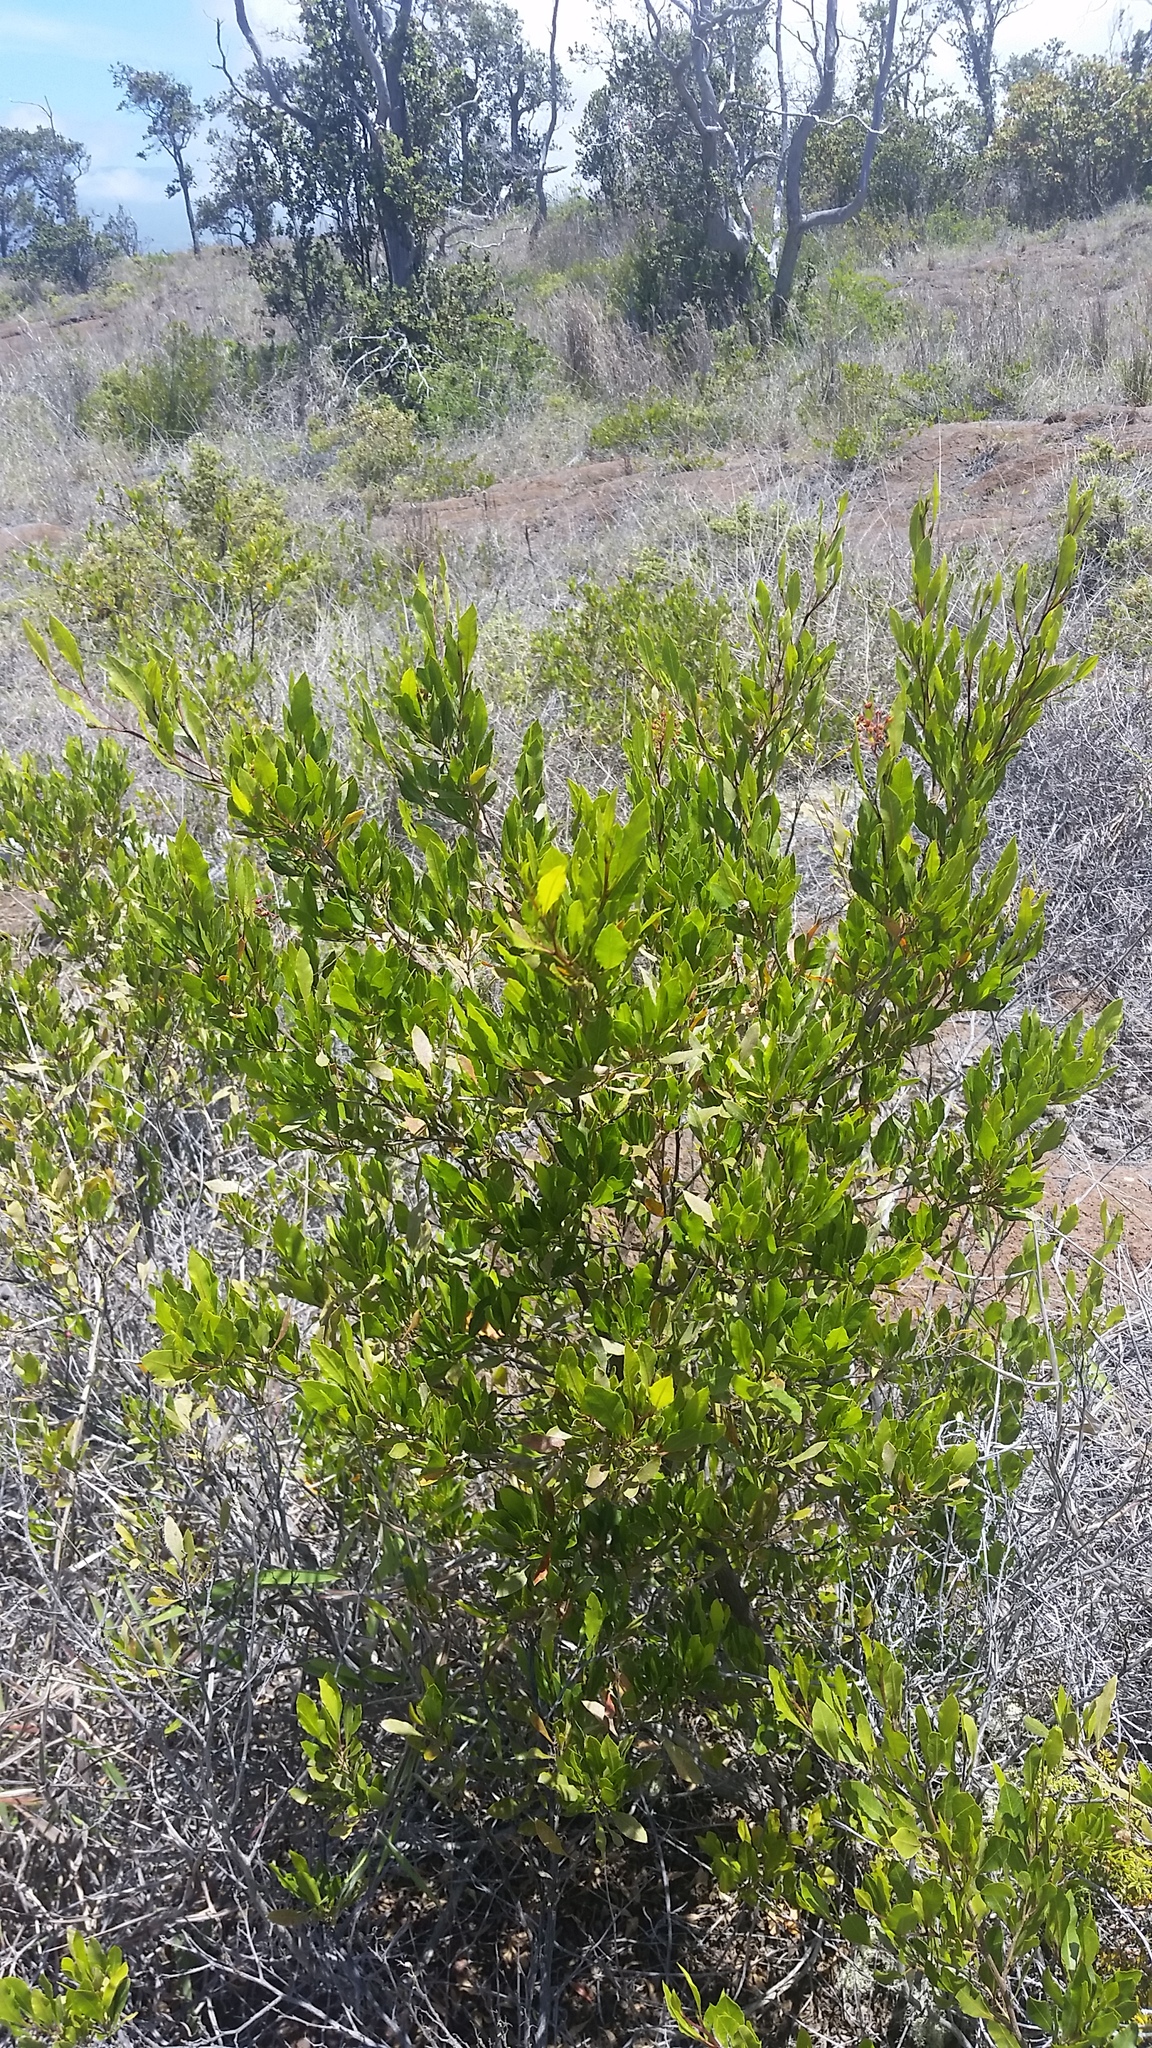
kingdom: Plantae
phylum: Tracheophyta
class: Magnoliopsida
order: Sapindales
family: Sapindaceae
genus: Dodonaea
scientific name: Dodonaea viscosa
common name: Hopbush
